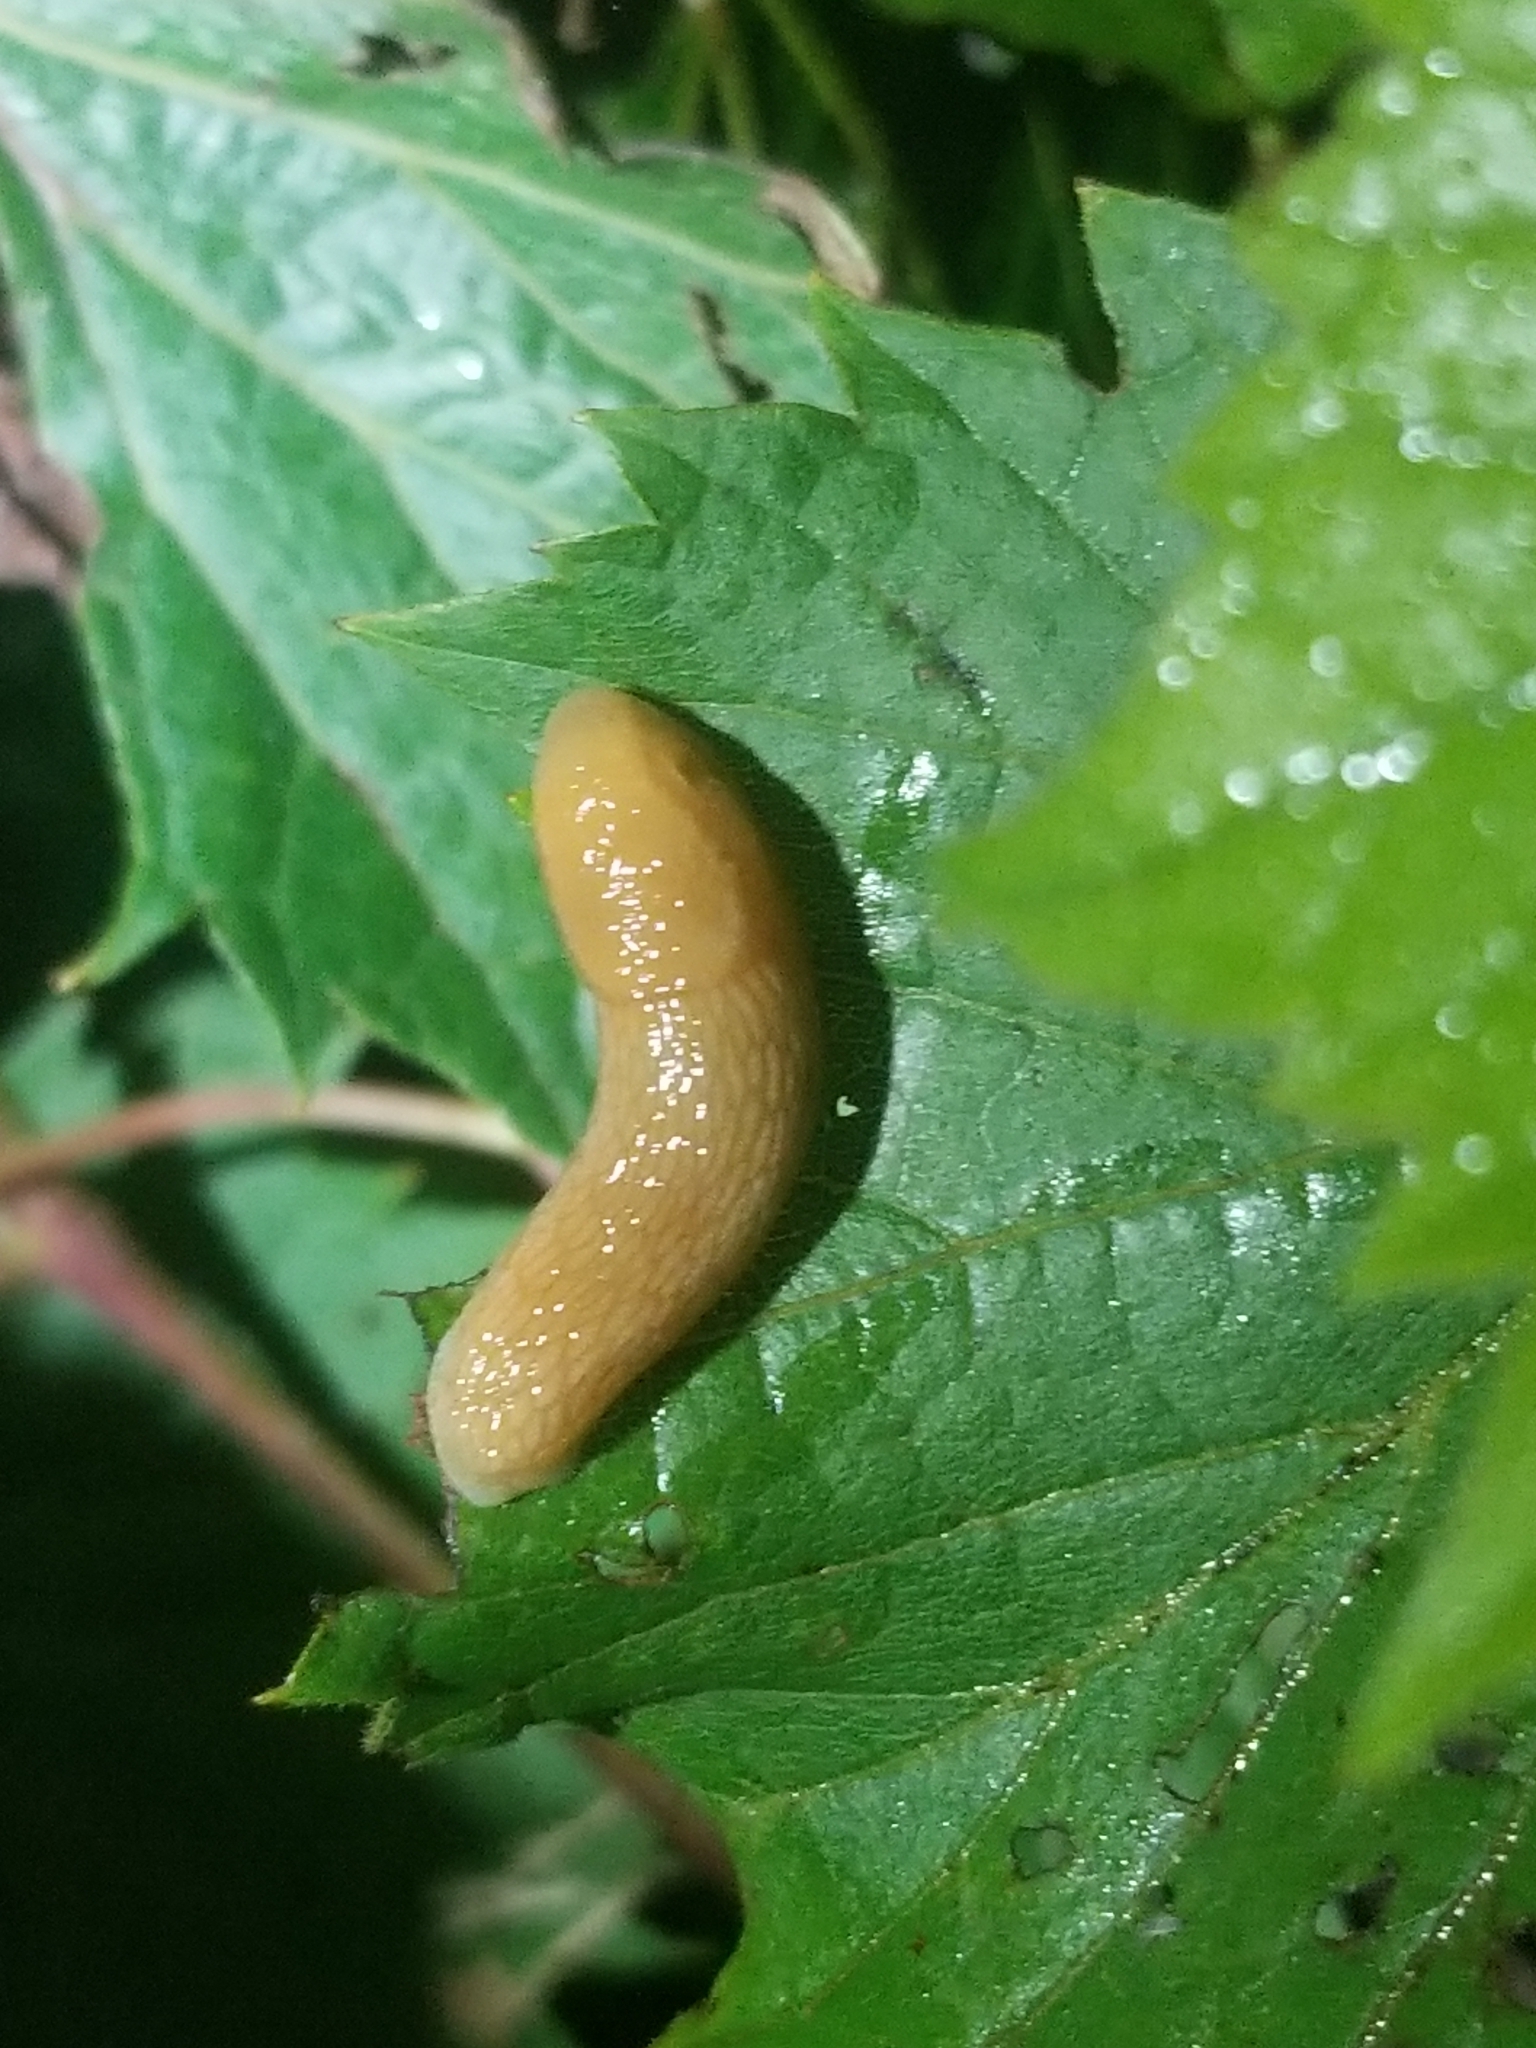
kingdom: Animalia
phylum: Mollusca
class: Gastropoda
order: Stylommatophora
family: Arionidae
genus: Arion
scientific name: Arion subfuscus
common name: Dusky arion
